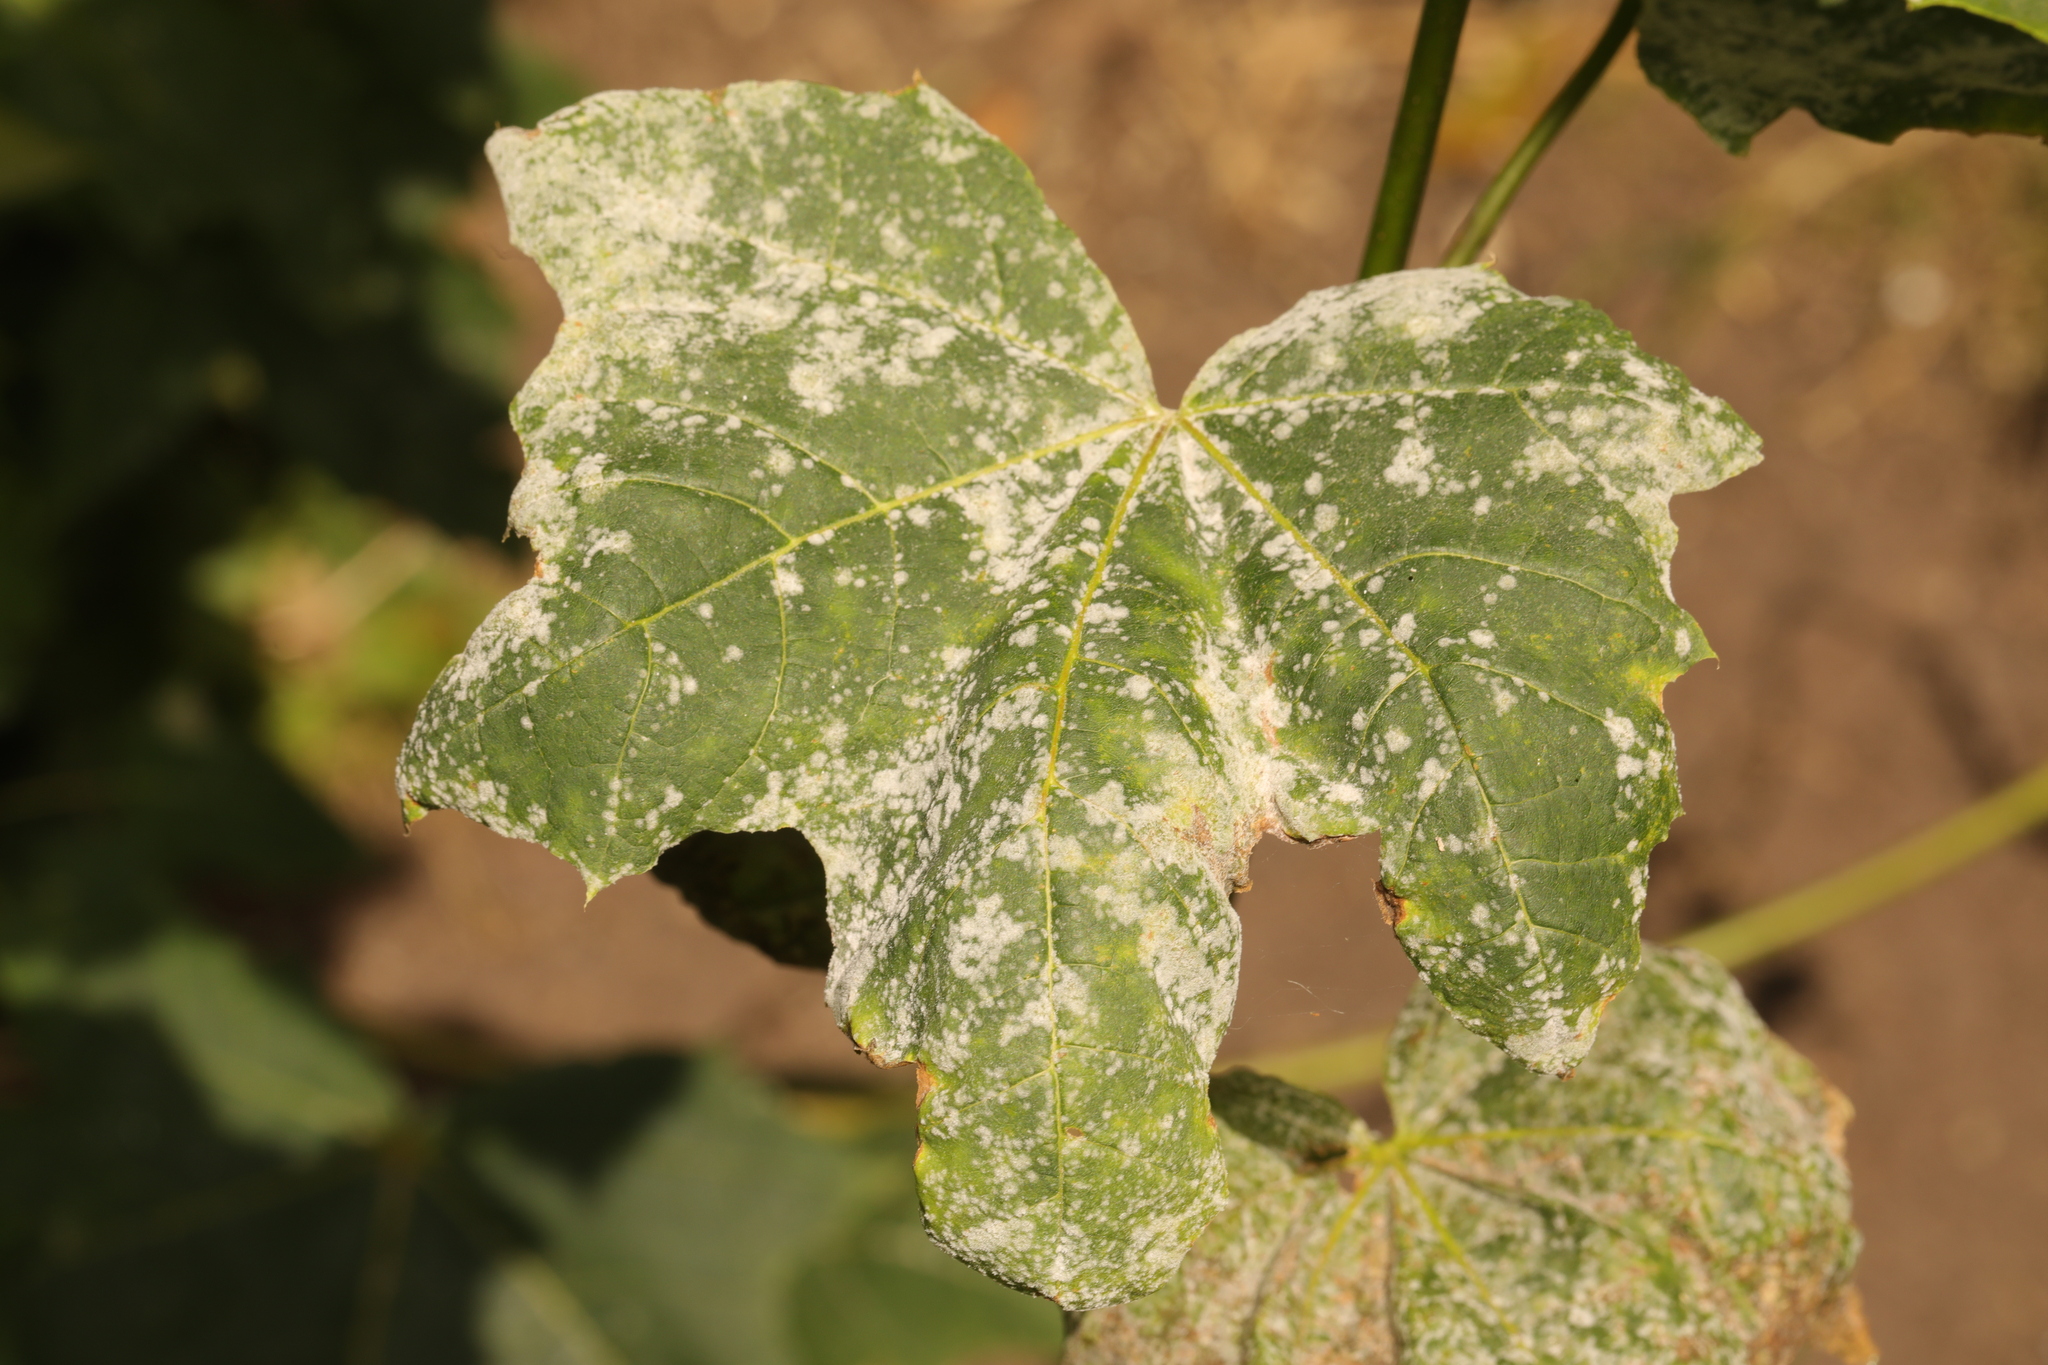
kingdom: Fungi
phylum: Ascomycota
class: Leotiomycetes
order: Helotiales
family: Erysiphaceae
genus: Sawadaea
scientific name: Sawadaea tulasnei
